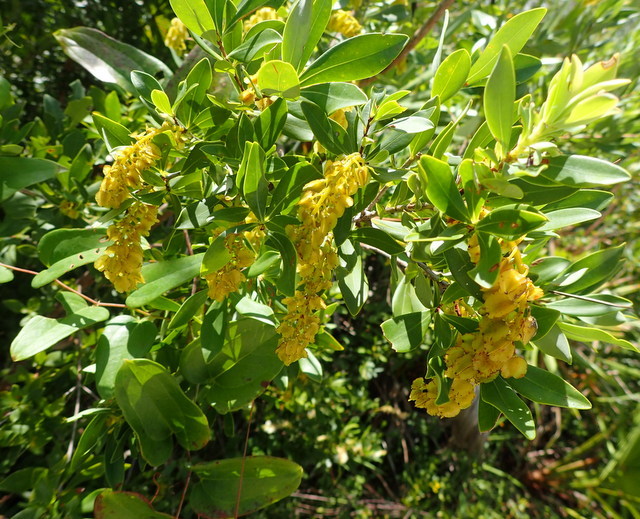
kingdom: Plantae
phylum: Tracheophyta
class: Magnoliopsida
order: Ericales
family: Cyrillaceae
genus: Cliftonia
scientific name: Cliftonia monophylla
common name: Titi
